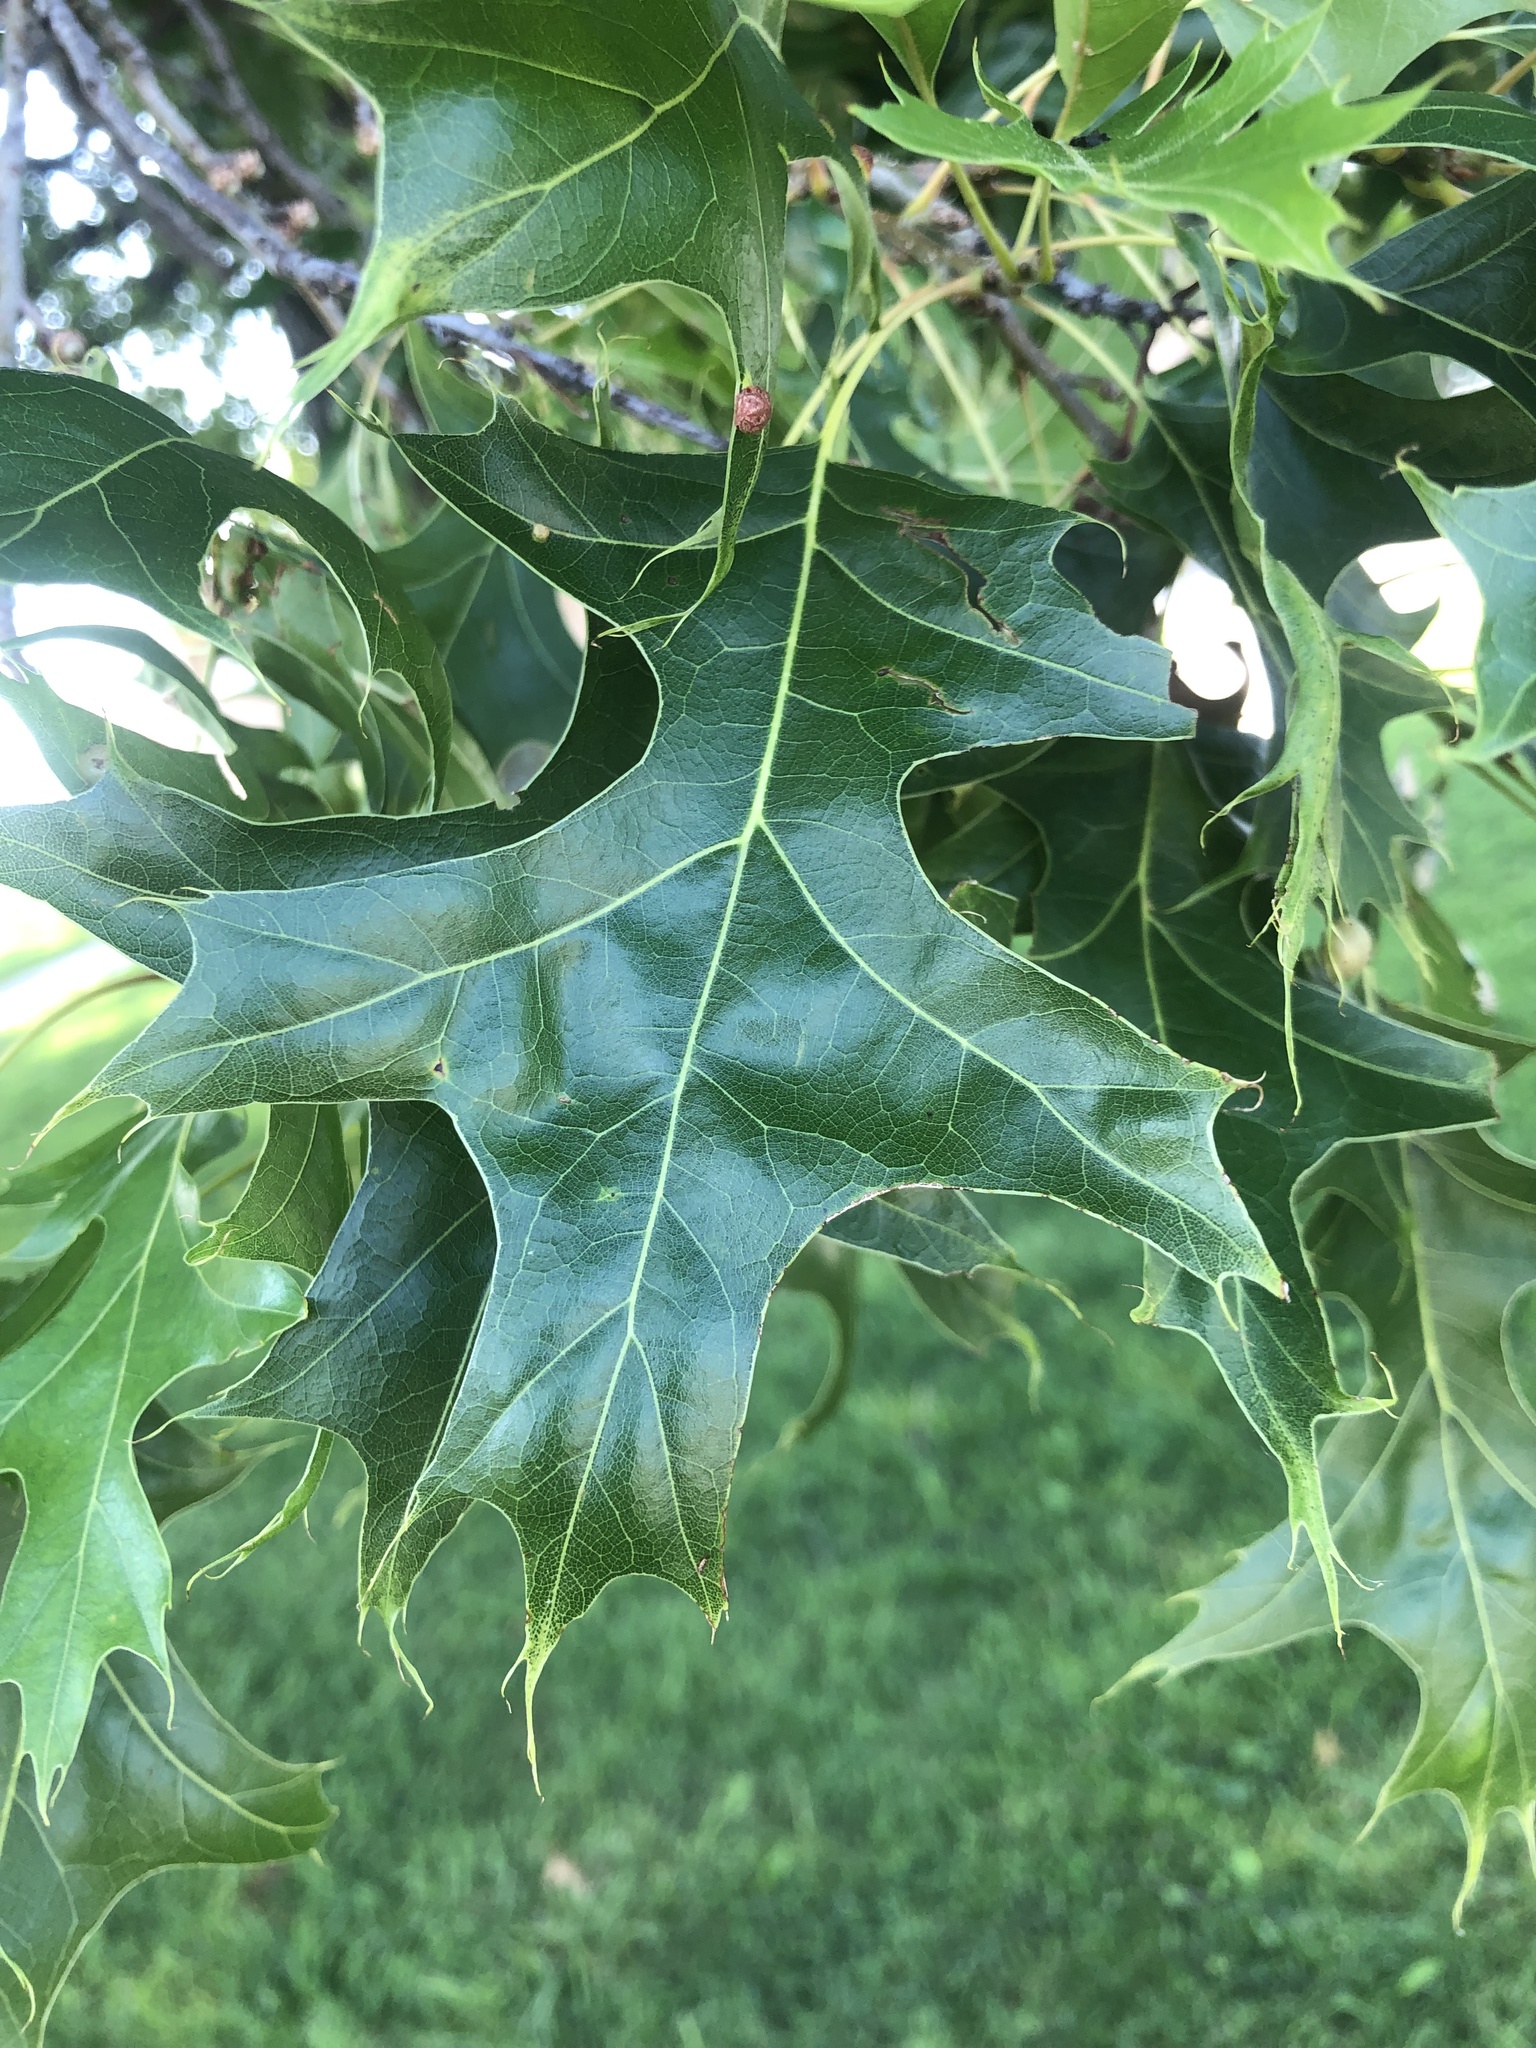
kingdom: Plantae
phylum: Tracheophyta
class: Magnoliopsida
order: Fagales
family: Fagaceae
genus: Quercus
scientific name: Quercus palustris
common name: Pin oak
